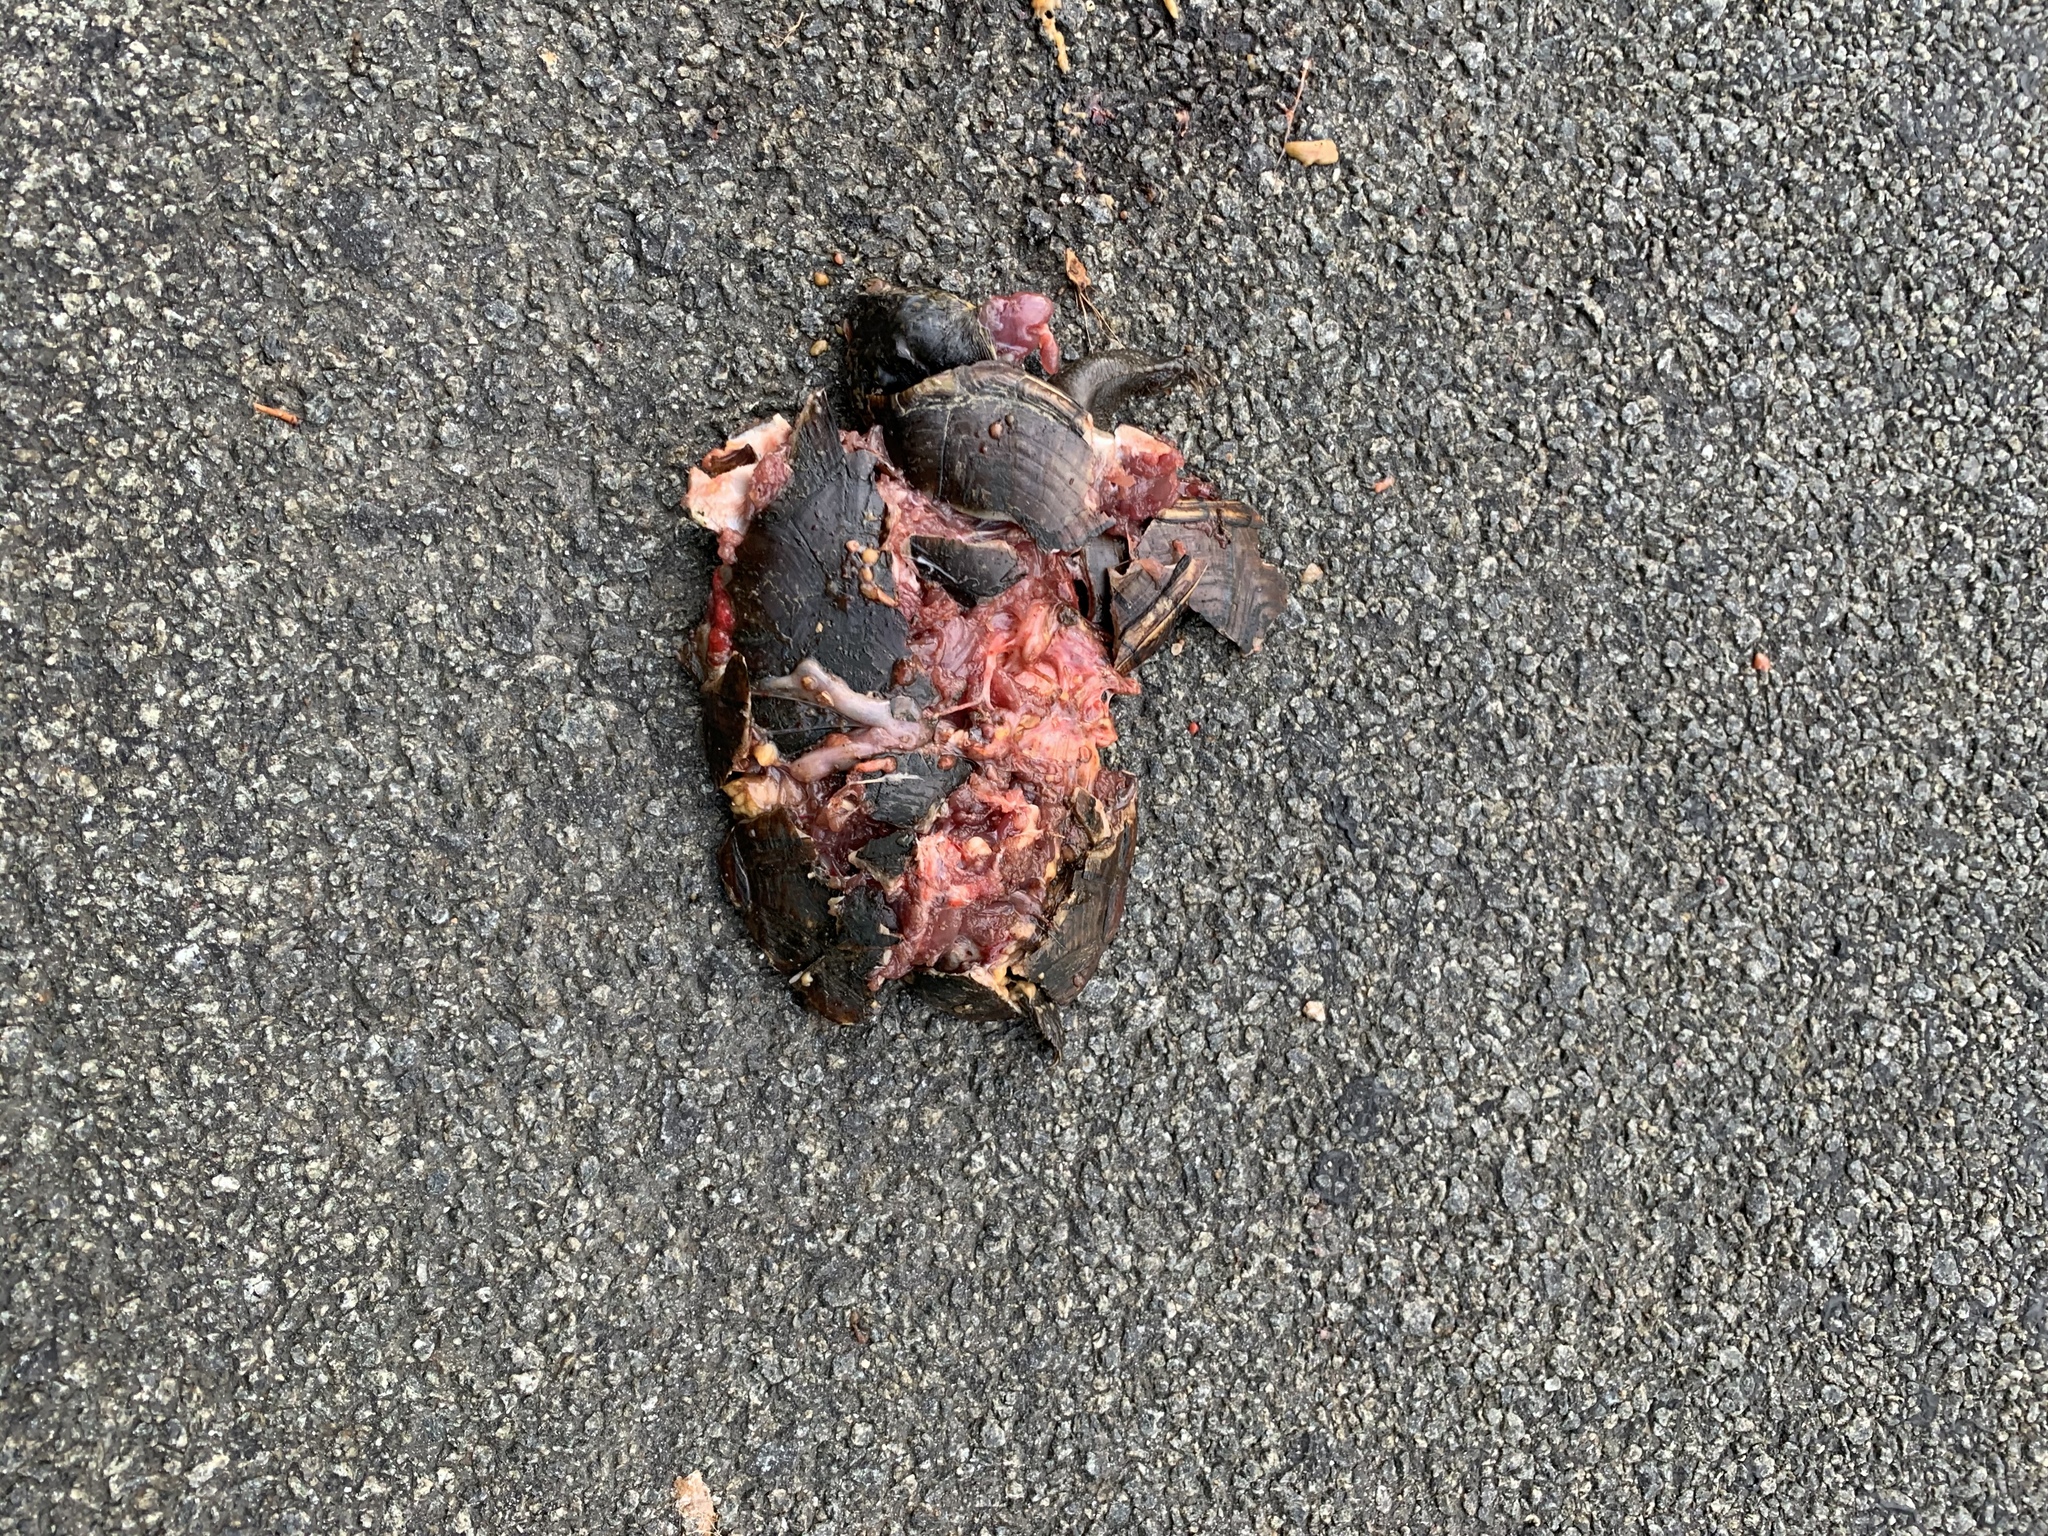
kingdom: Animalia
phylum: Chordata
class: Testudines
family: Kinosternidae
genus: Kinosternon
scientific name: Kinosternon subrubrum
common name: Eastern mud turtle
